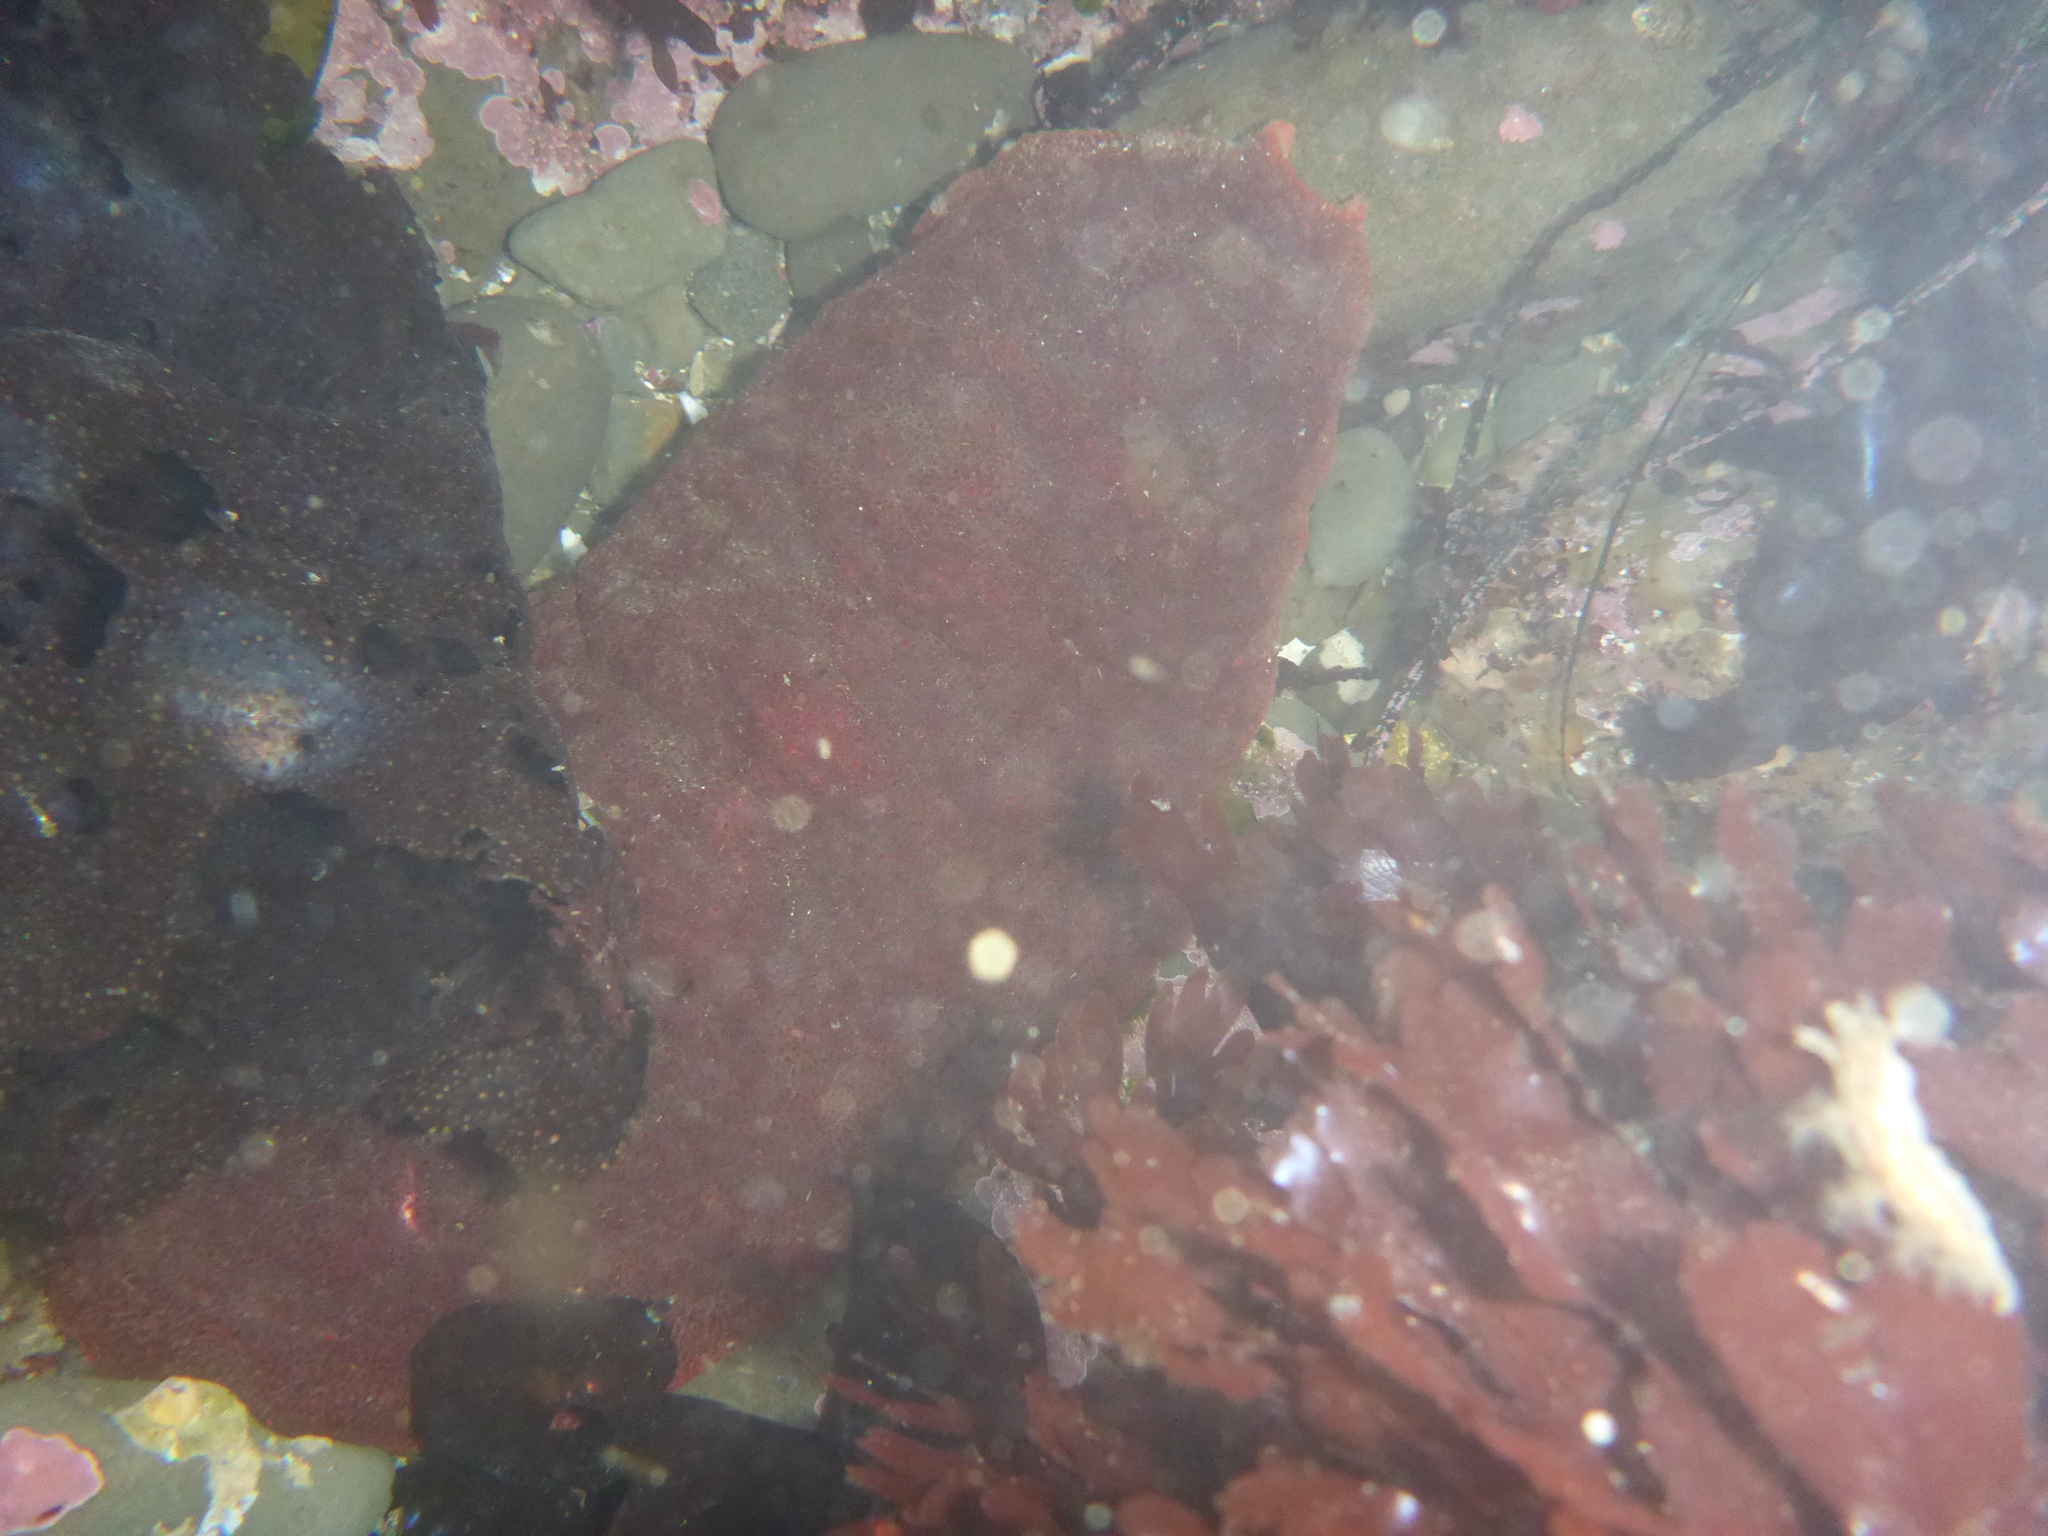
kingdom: Animalia
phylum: Mollusca
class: Polyplacophora
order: Chitonida
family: Acanthochitonidae
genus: Cryptochiton
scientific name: Cryptochiton stelleri
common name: Giant pacific chiton
